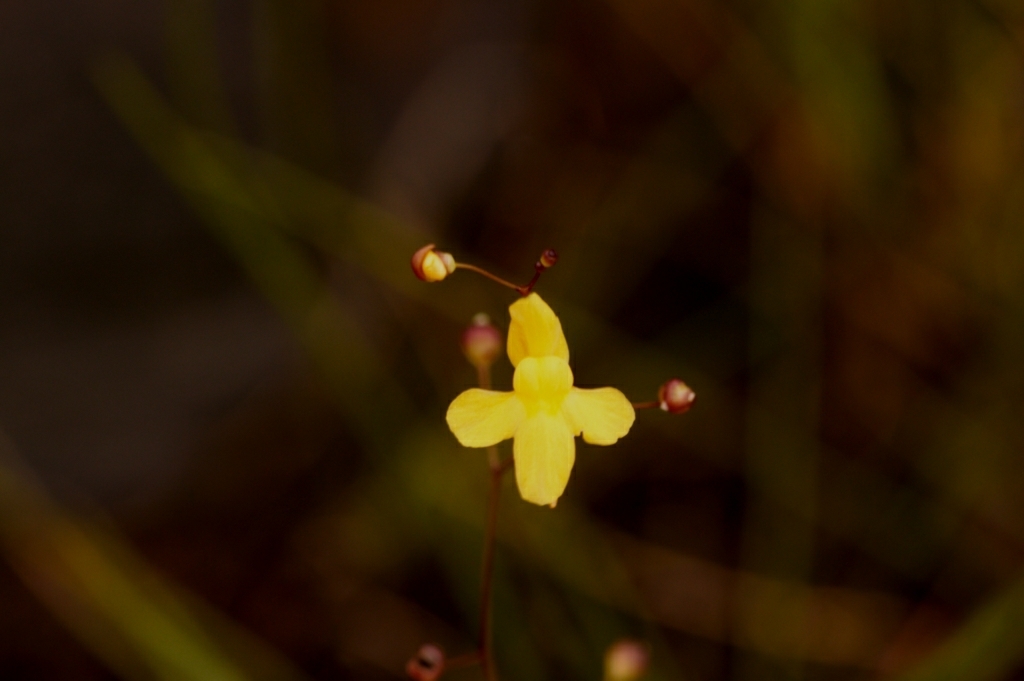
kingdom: Plantae
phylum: Tracheophyta
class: Magnoliopsida
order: Lamiales
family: Lentibulariaceae
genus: Utricularia
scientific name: Utricularia subulata
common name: Tiny bladderwort
